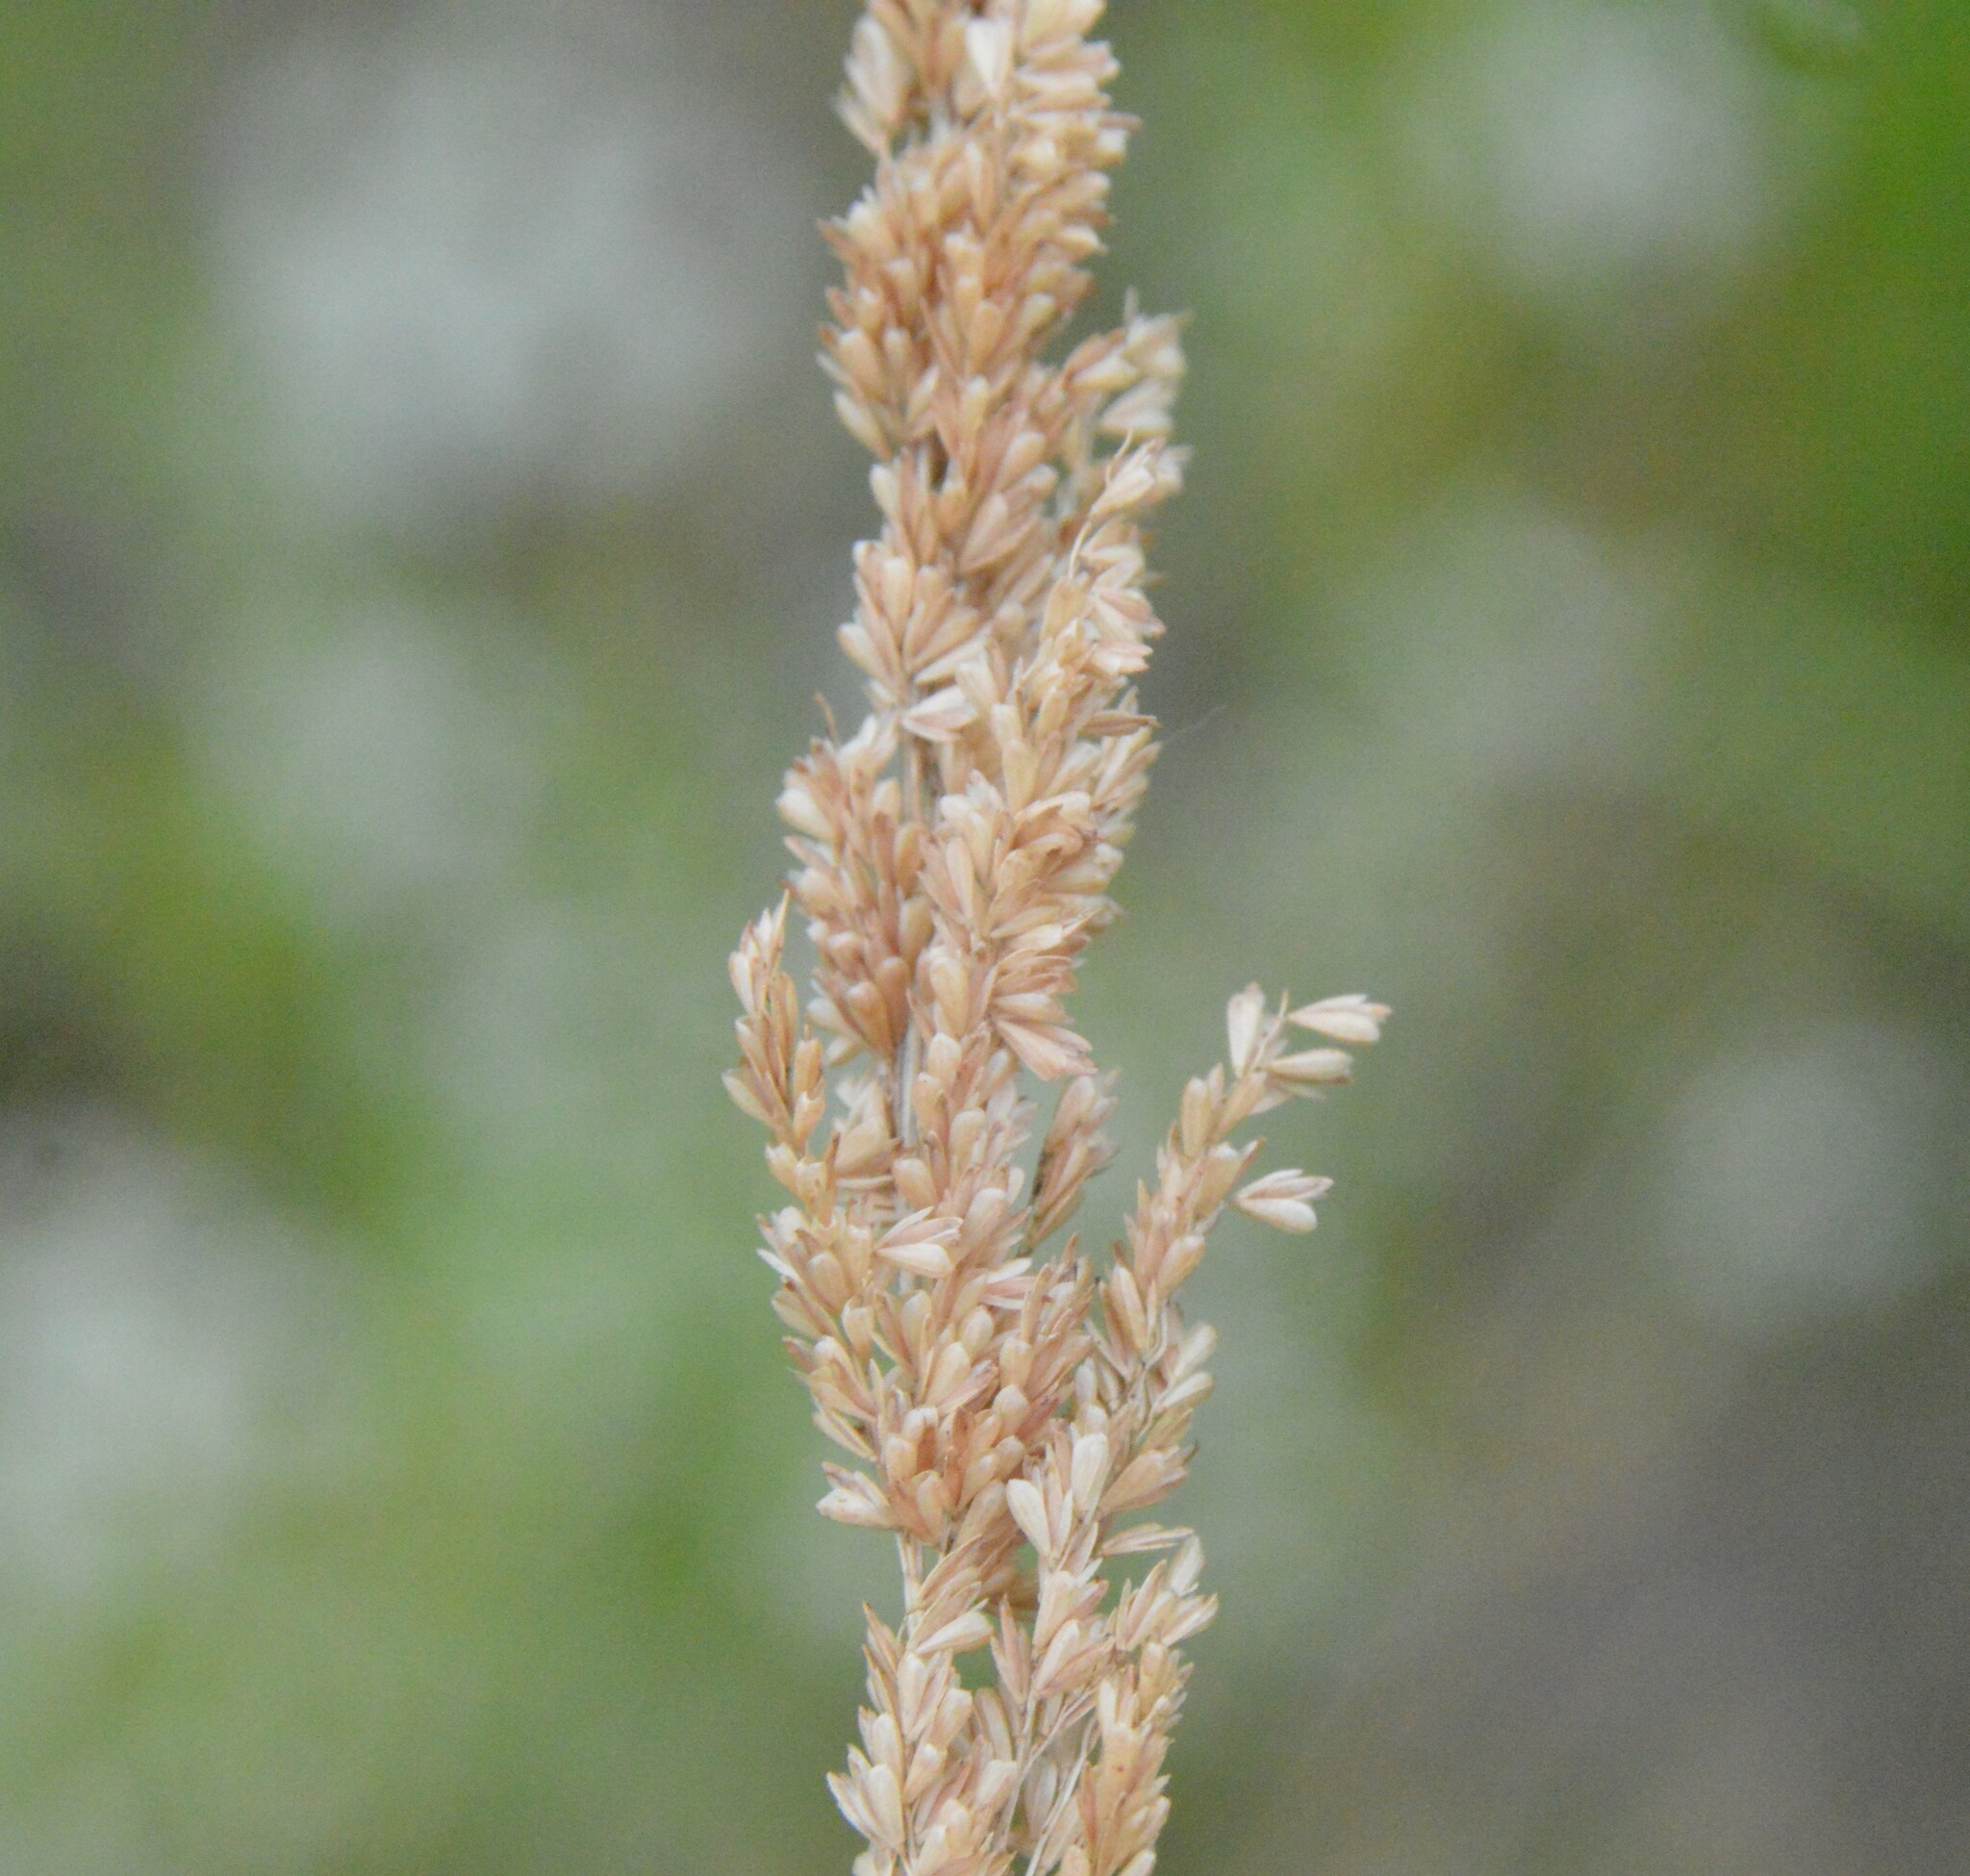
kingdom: Plantae
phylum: Tracheophyta
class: Liliopsida
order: Poales
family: Poaceae
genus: Sphenopholis
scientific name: Sphenopholis obtusata
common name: Prairie grass
